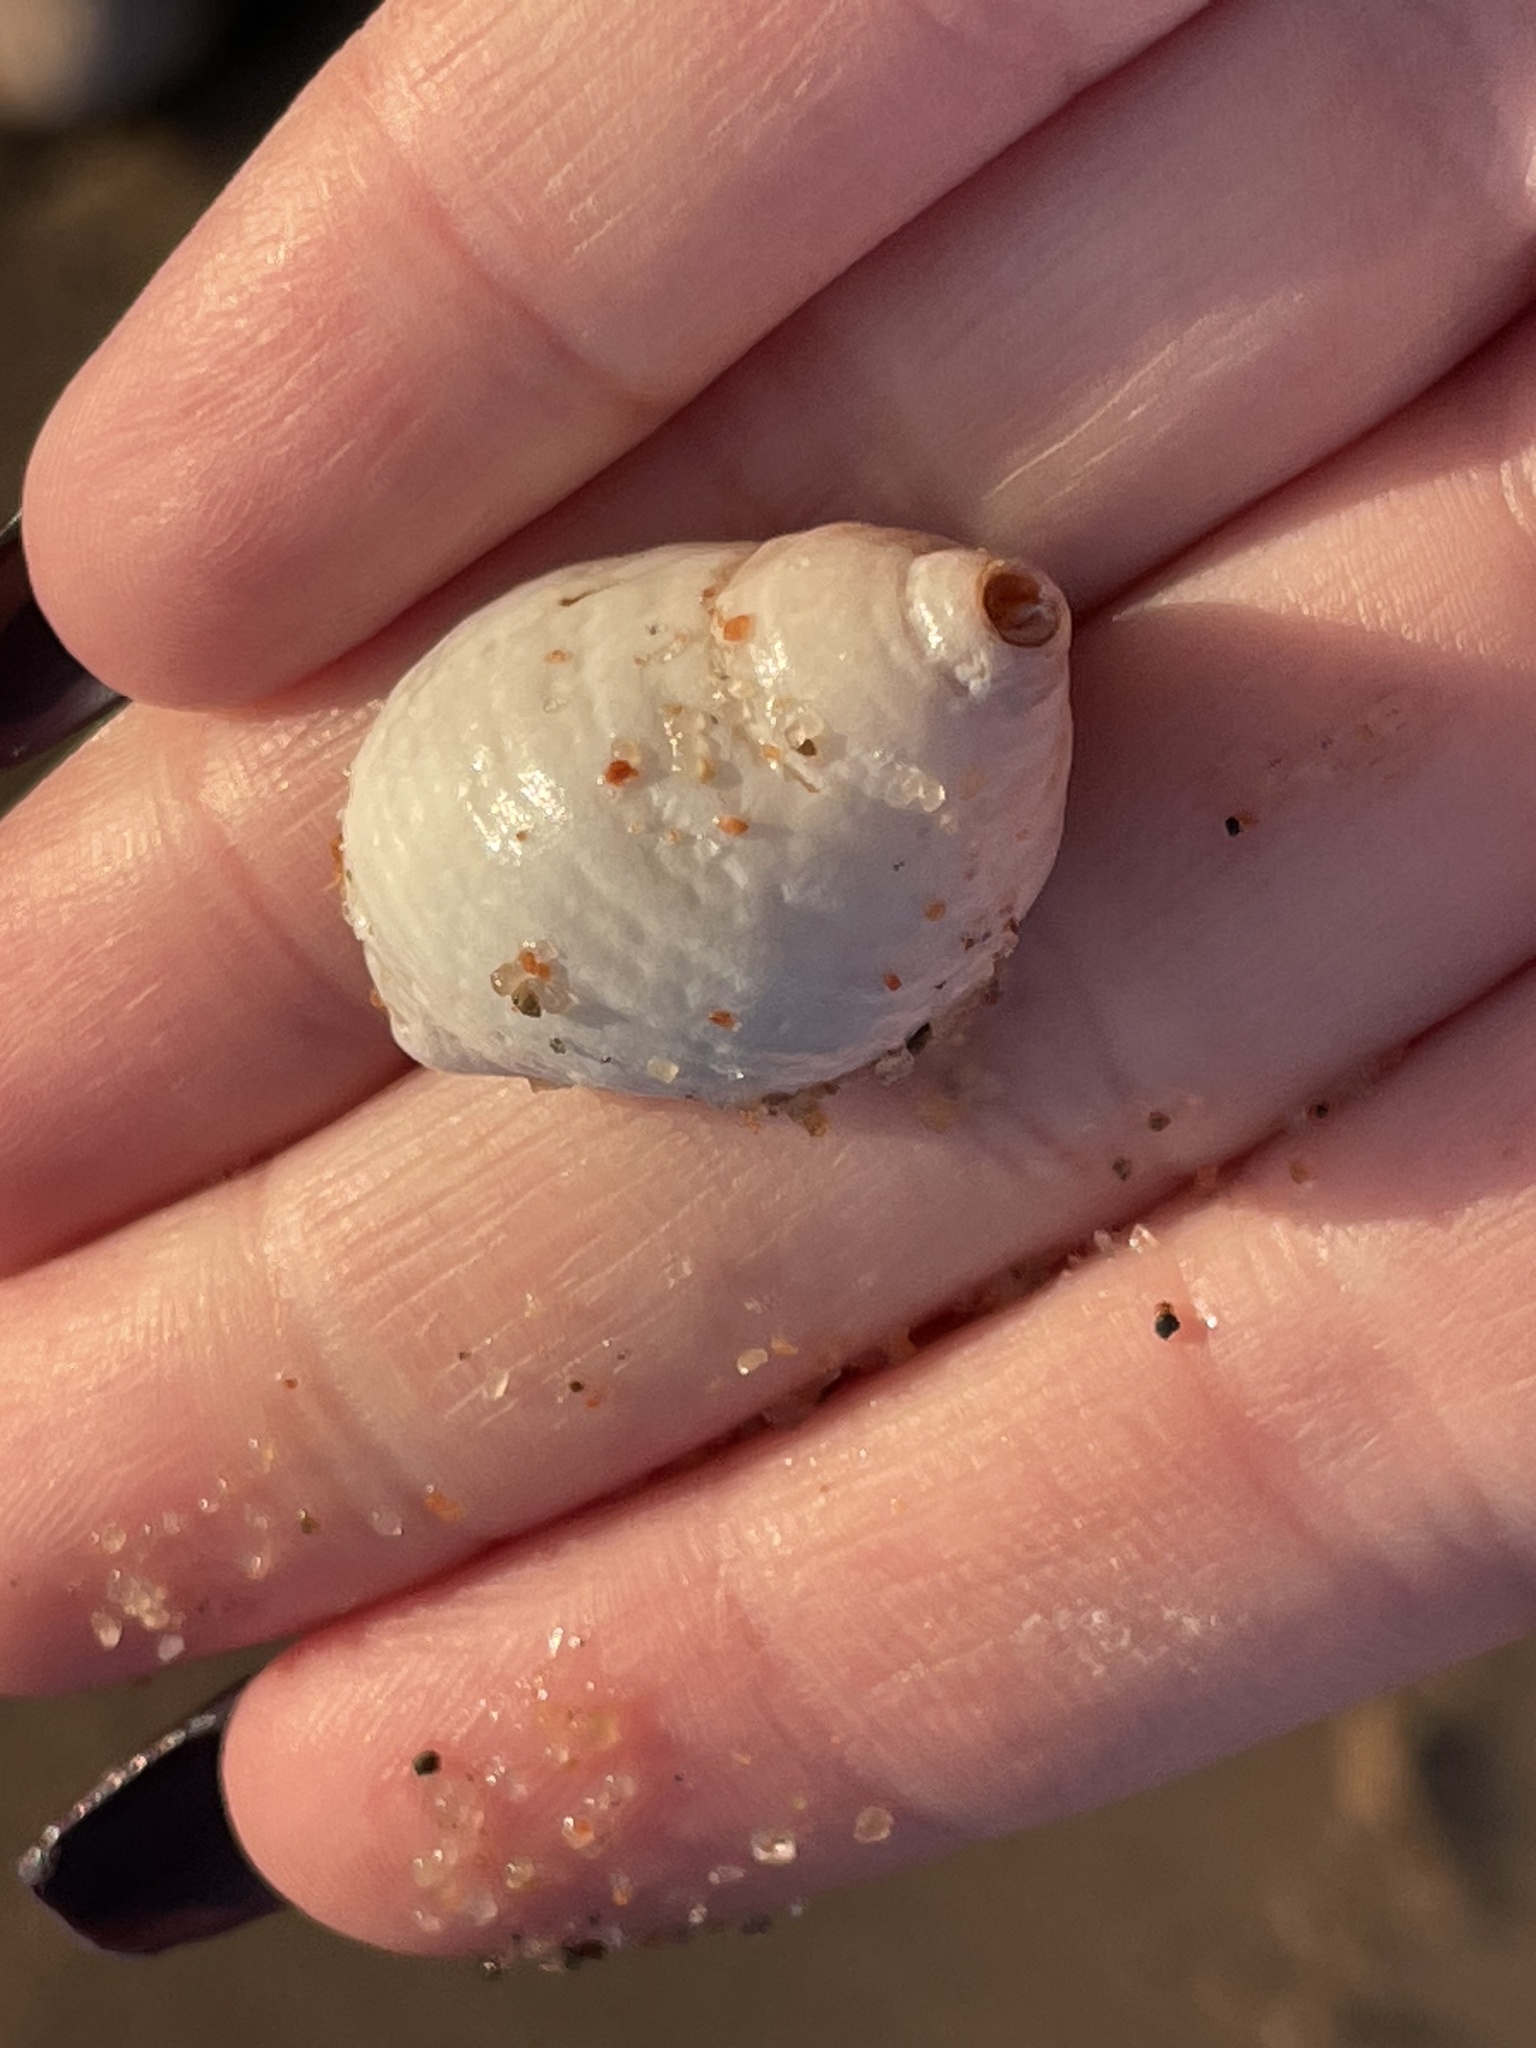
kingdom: Animalia
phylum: Mollusca
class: Gastropoda
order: Neogastropoda
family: Muricidae
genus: Nucella
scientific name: Nucella lapillus
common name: Dog whelk
